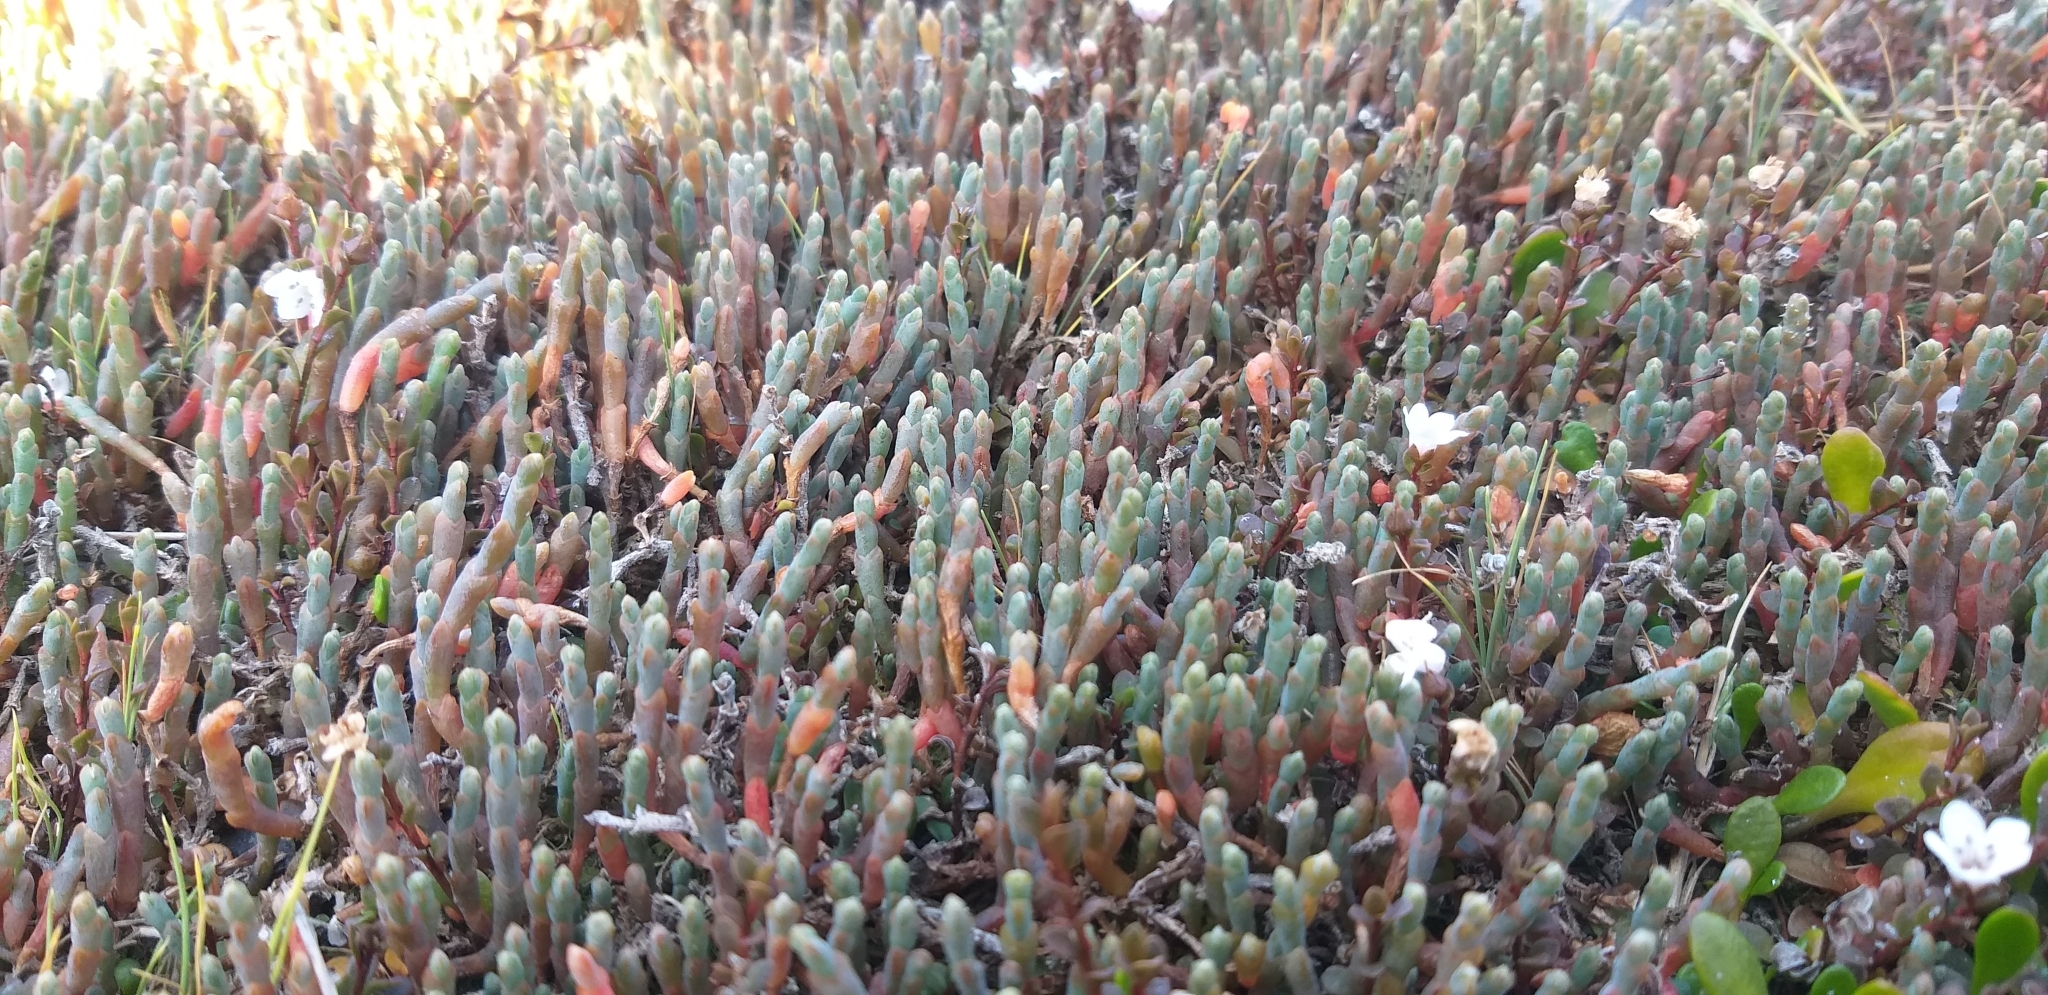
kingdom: Plantae
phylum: Tracheophyta
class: Magnoliopsida
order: Caryophyllales
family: Amaranthaceae
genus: Salicornia
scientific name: Salicornia quinqueflora
